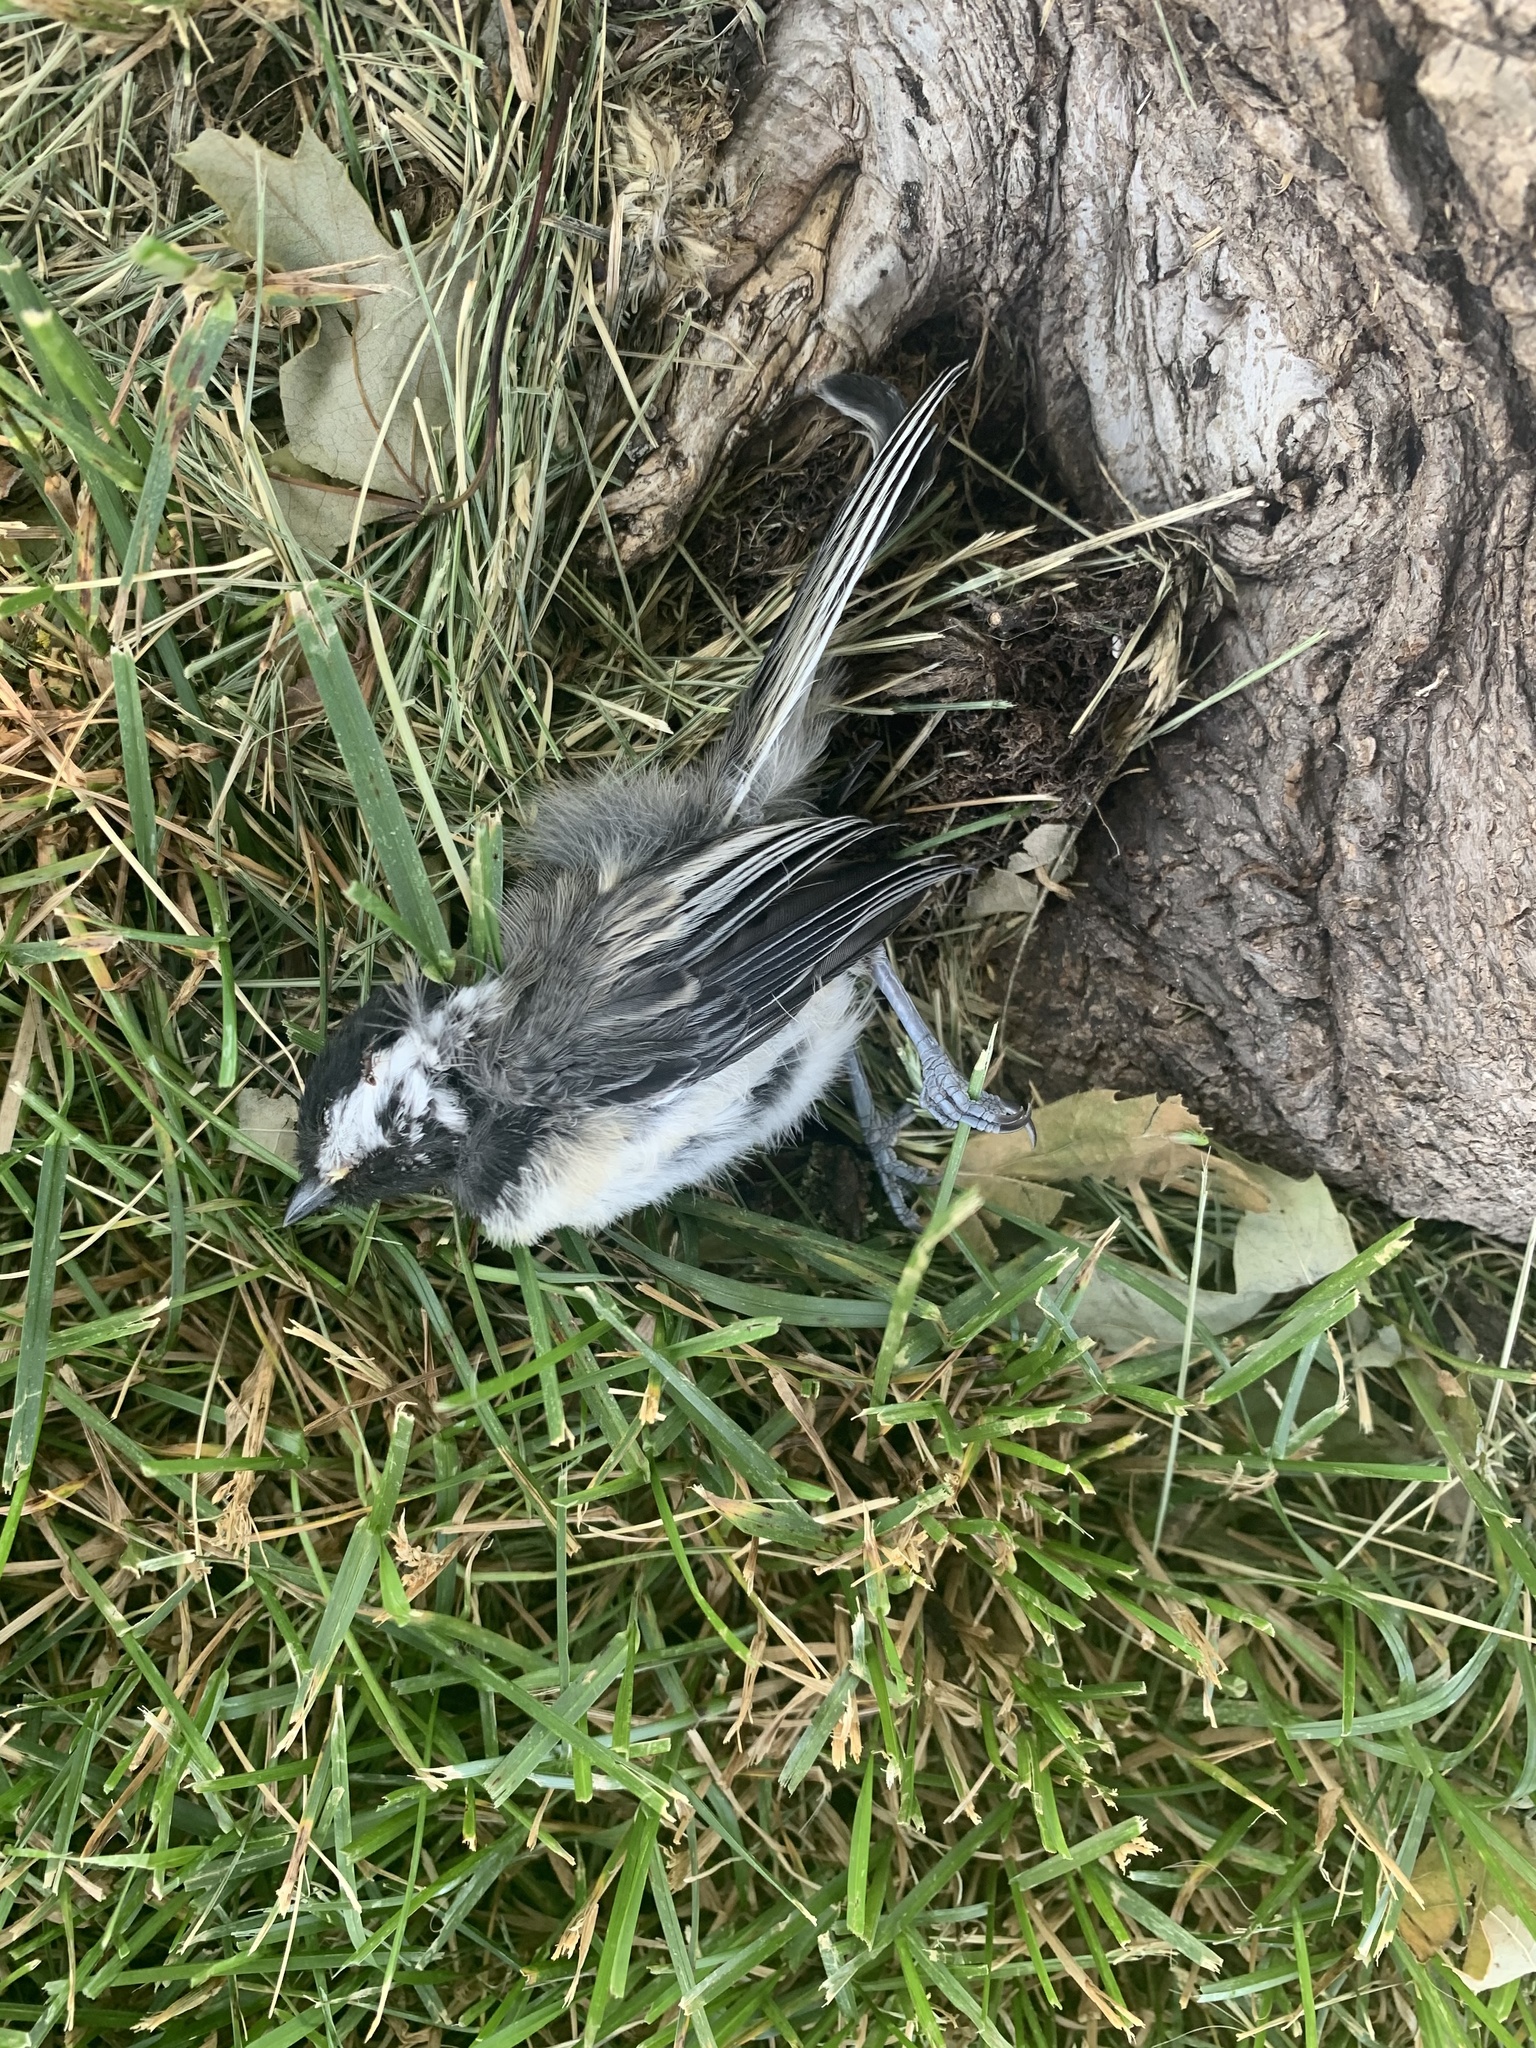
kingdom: Animalia
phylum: Chordata
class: Aves
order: Passeriformes
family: Paridae
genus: Poecile
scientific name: Poecile atricapillus
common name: Black-capped chickadee
